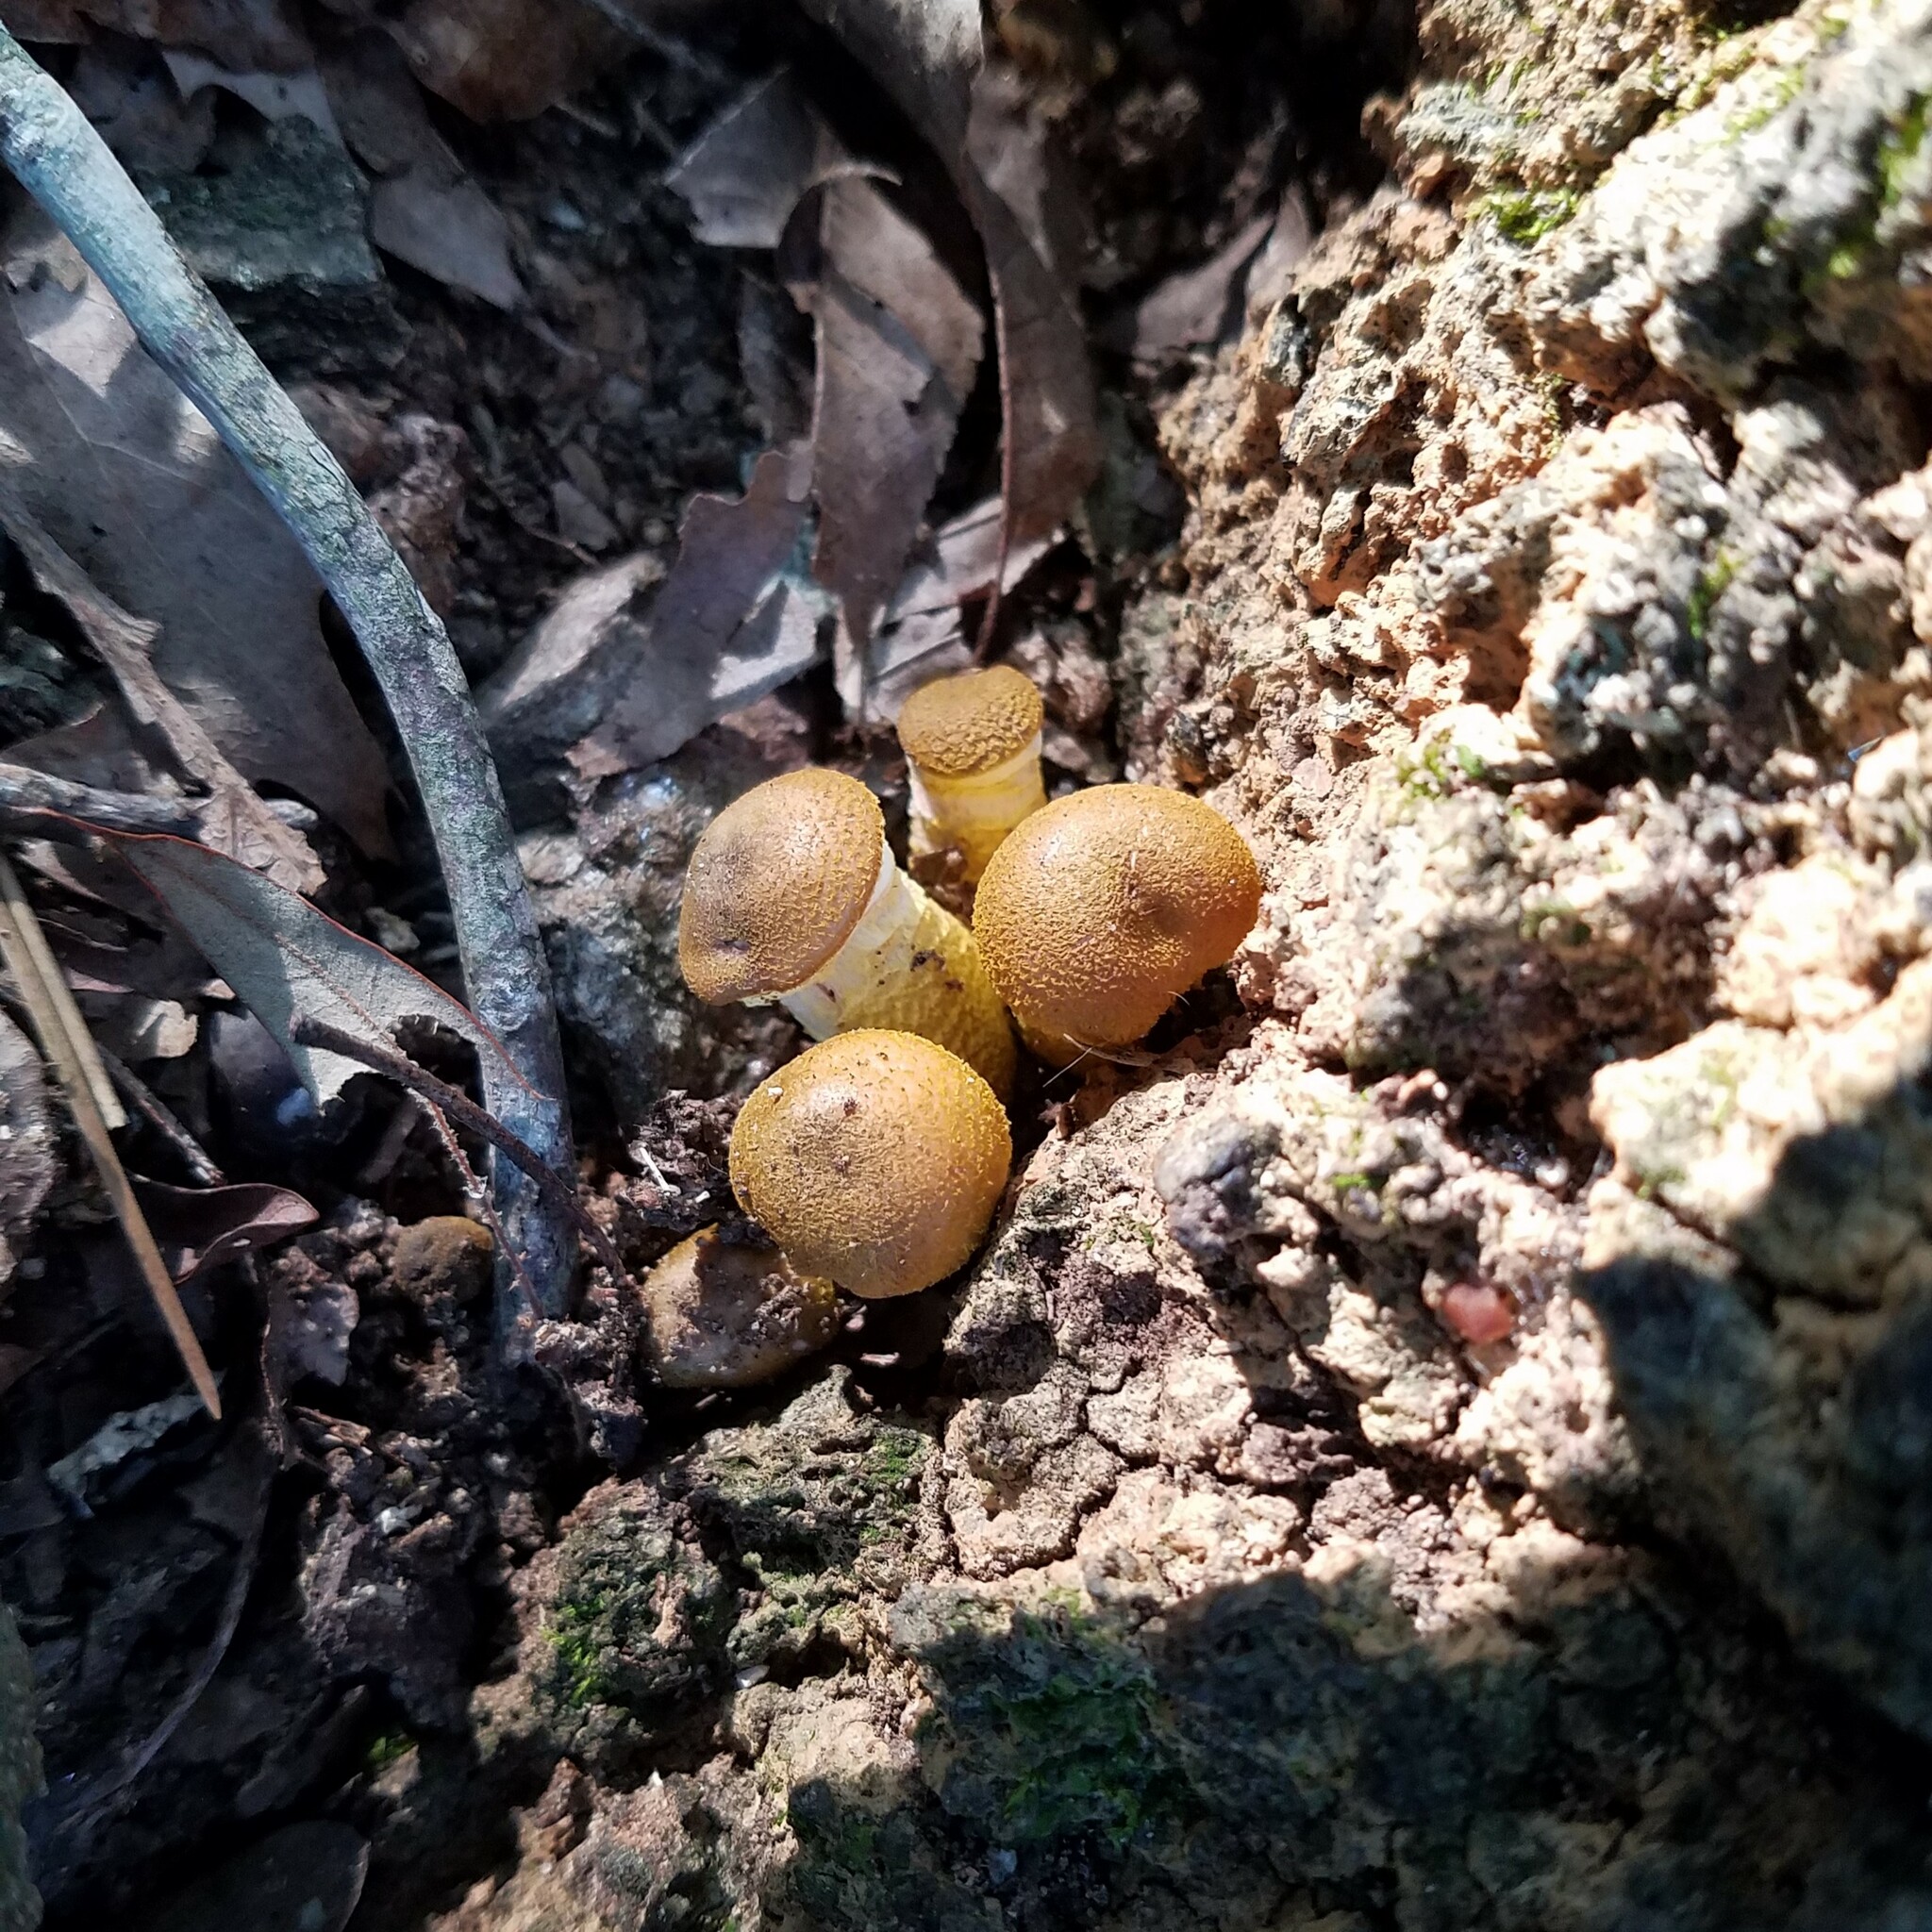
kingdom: Fungi
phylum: Basidiomycota
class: Agaricomycetes
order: Agaricales
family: Physalacriaceae
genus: Armillaria
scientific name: Armillaria mellea
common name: Honey fungus
